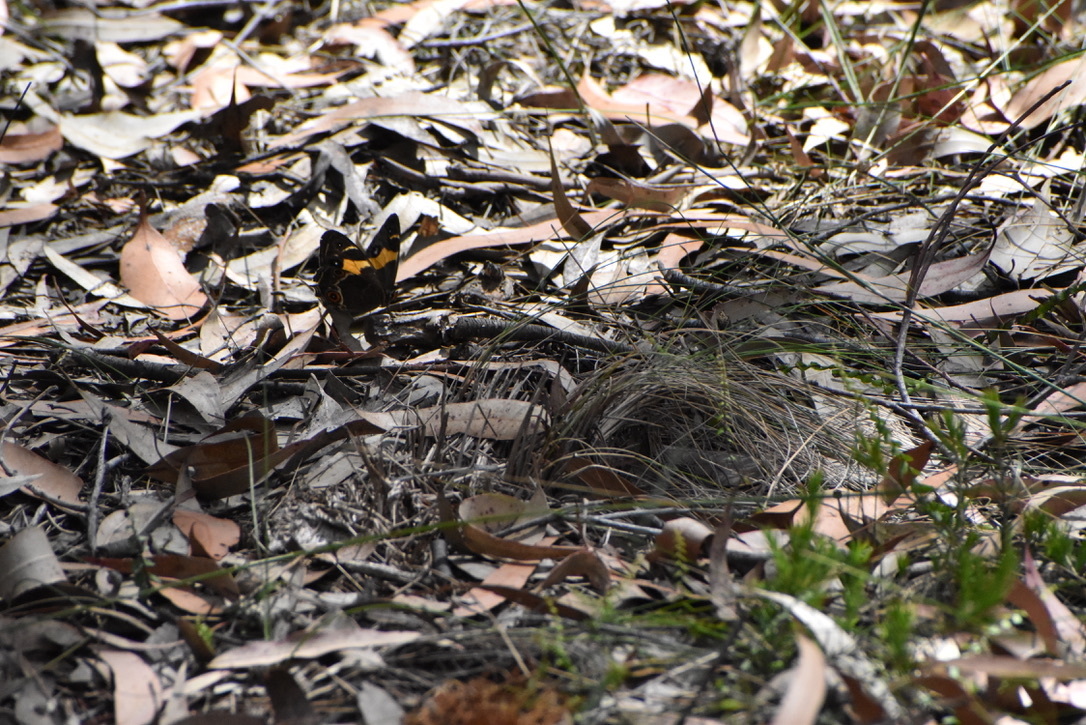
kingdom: Animalia
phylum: Arthropoda
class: Insecta
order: Lepidoptera
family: Nymphalidae
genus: Tisiphone
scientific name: Tisiphone abeona
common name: Swordgrass brown
